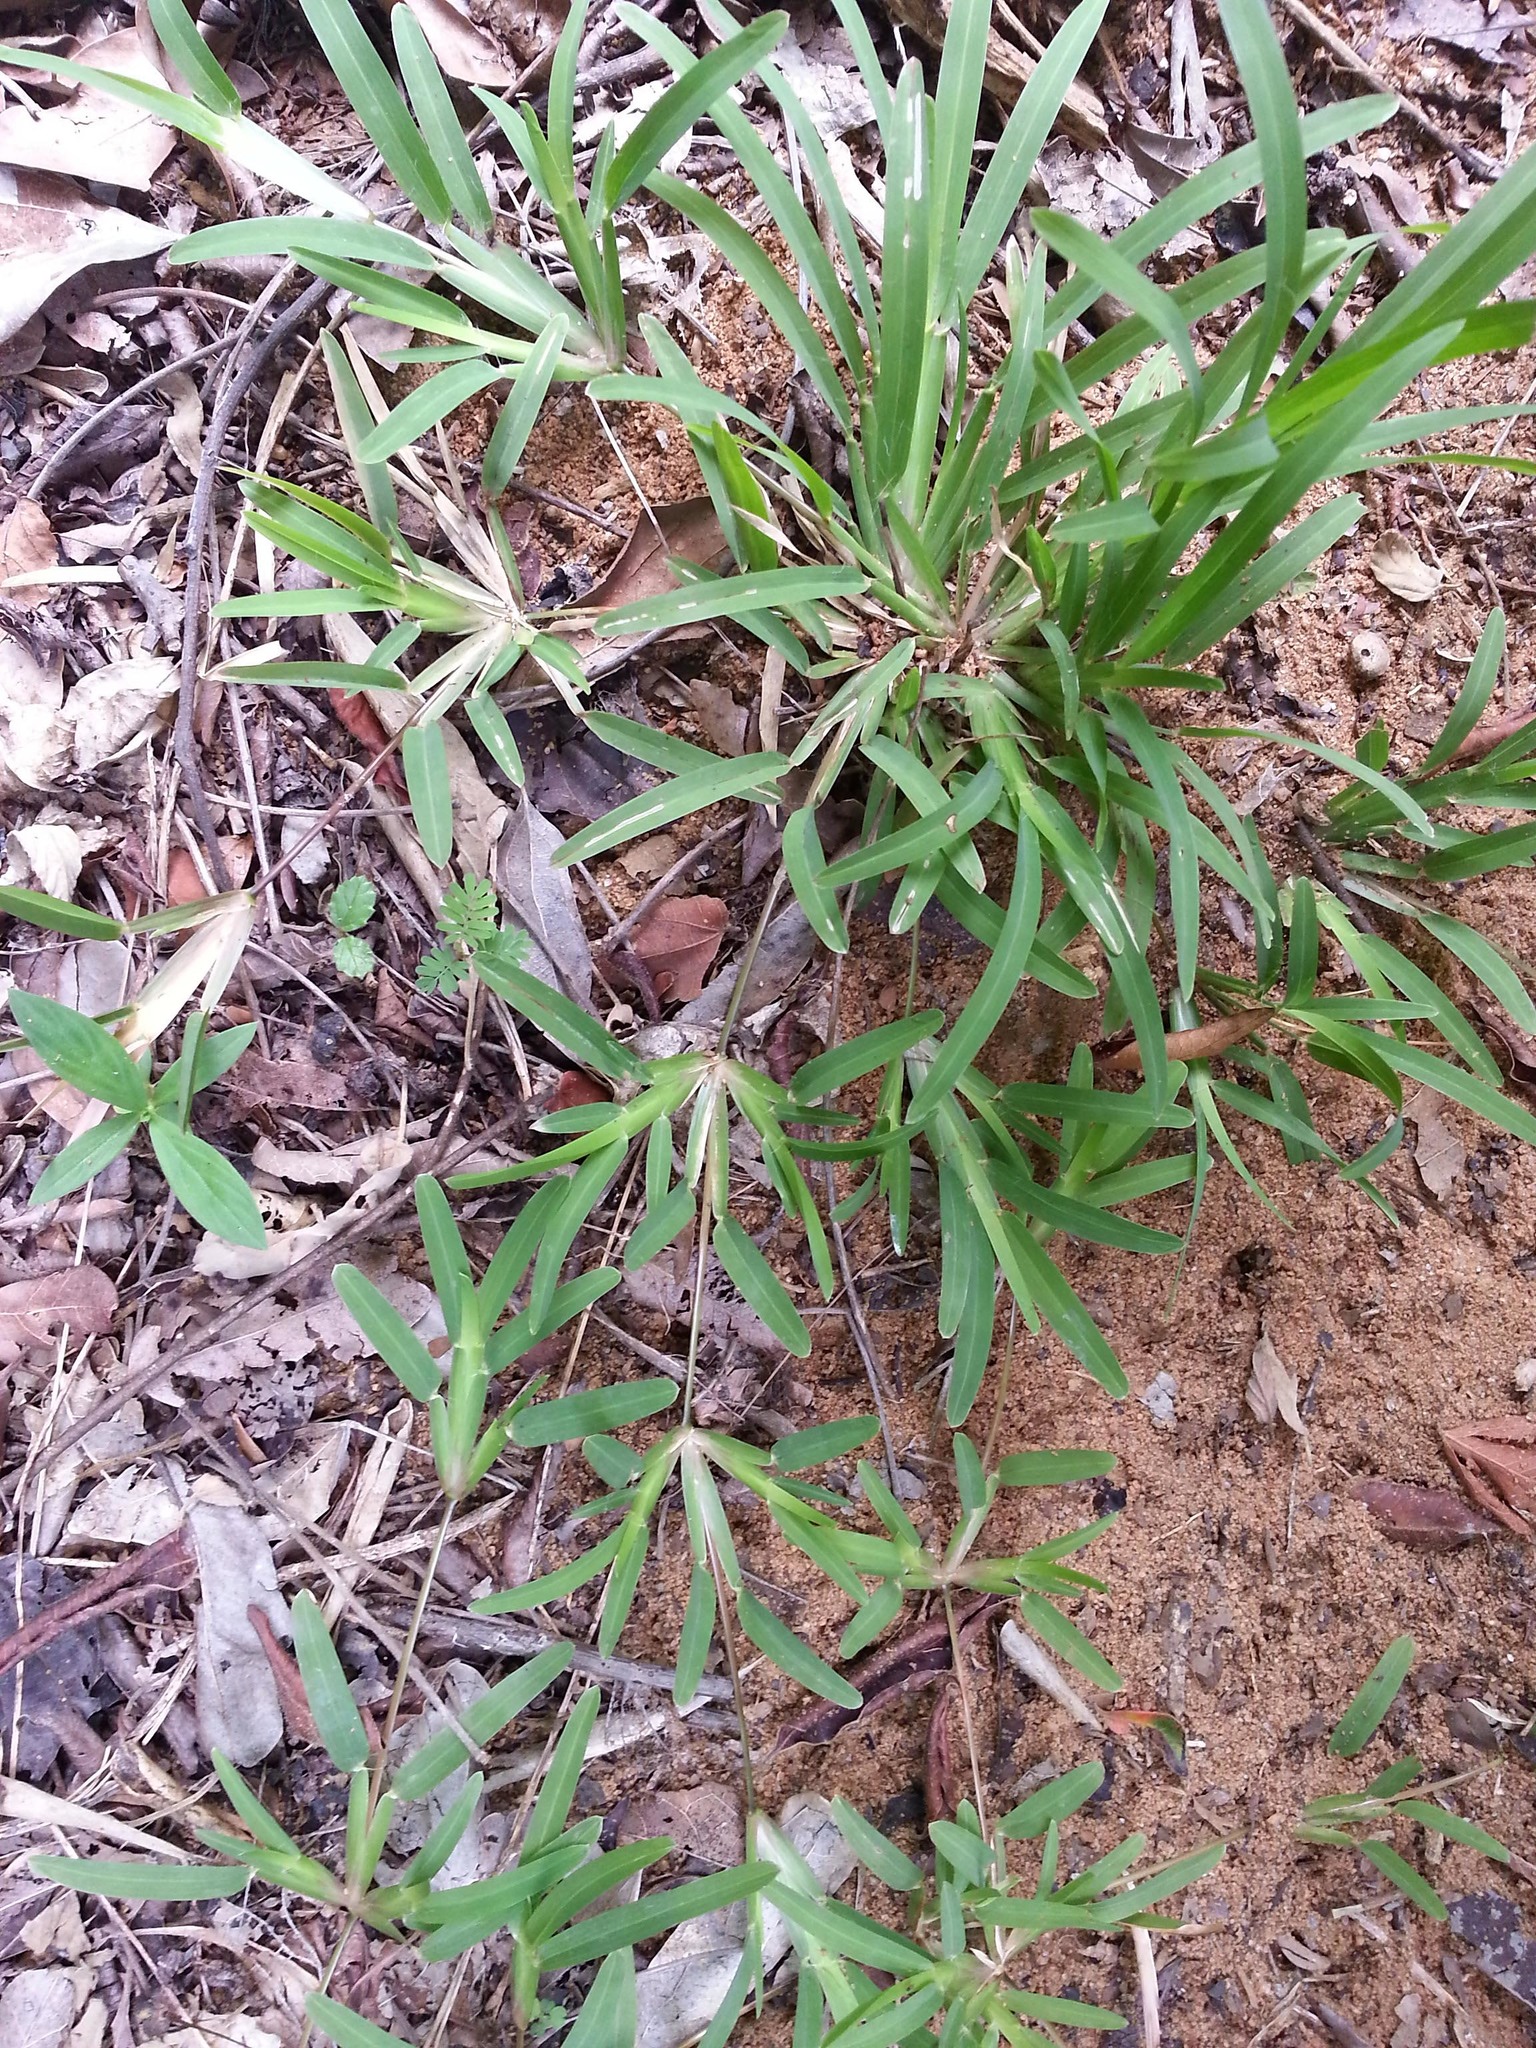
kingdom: Plantae
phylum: Tracheophyta
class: Liliopsida
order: Poales
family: Poaceae
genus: Neostapfiella
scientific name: Neostapfiella perrieri
